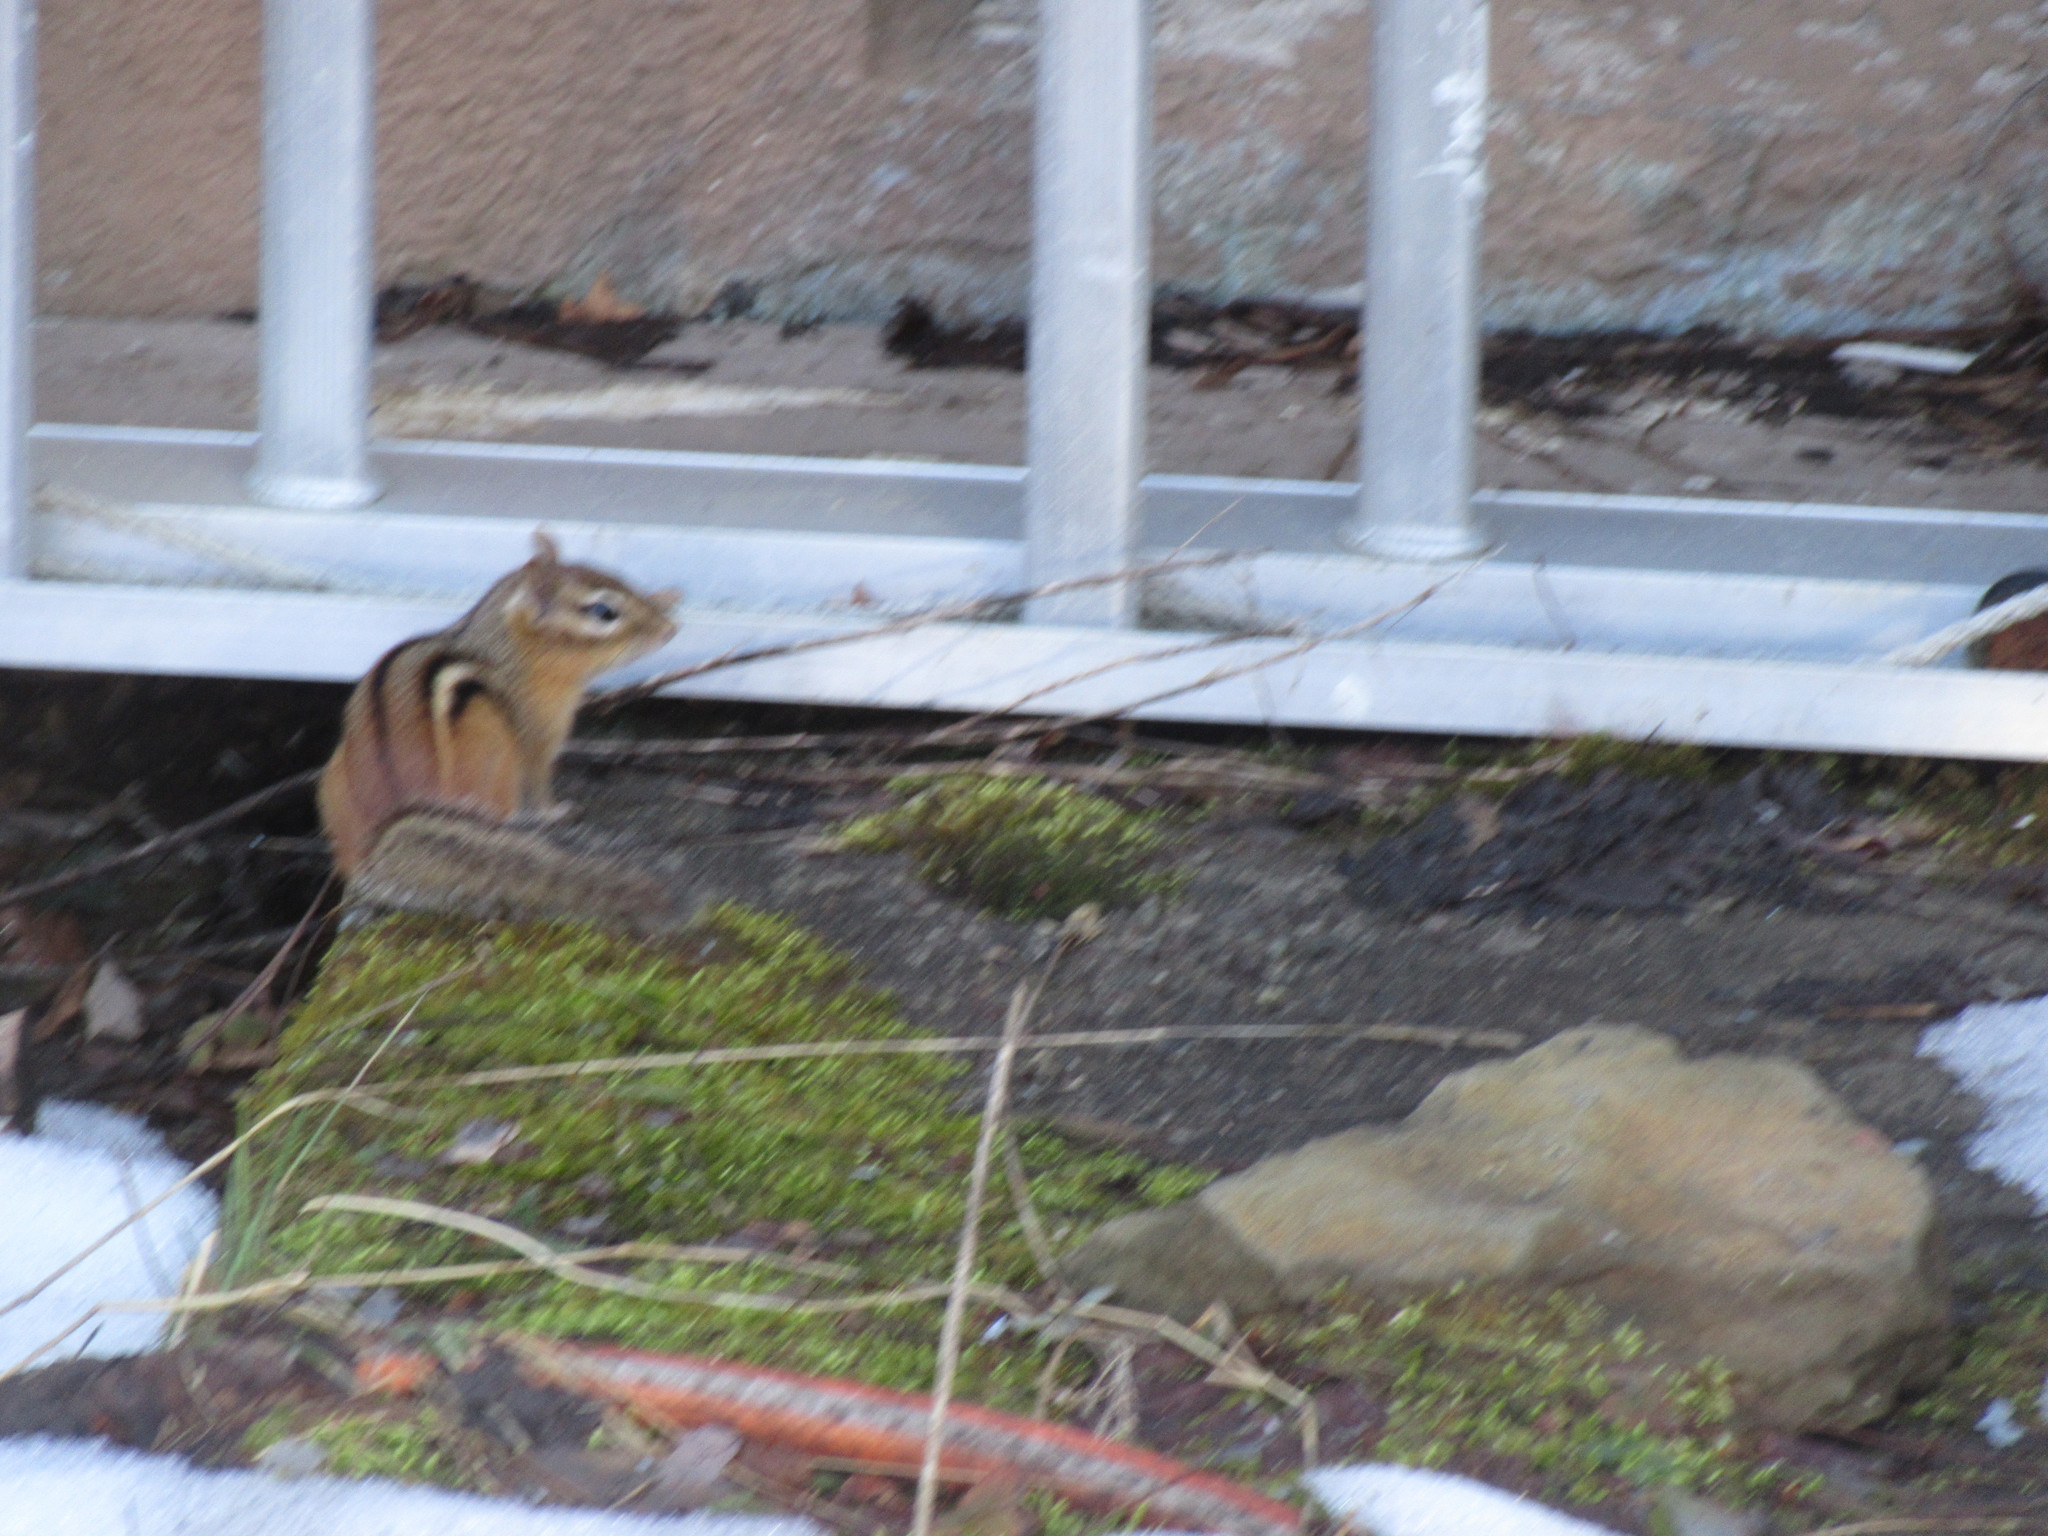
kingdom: Animalia
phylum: Chordata
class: Mammalia
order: Rodentia
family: Sciuridae
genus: Tamias
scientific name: Tamias striatus
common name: Eastern chipmunk
